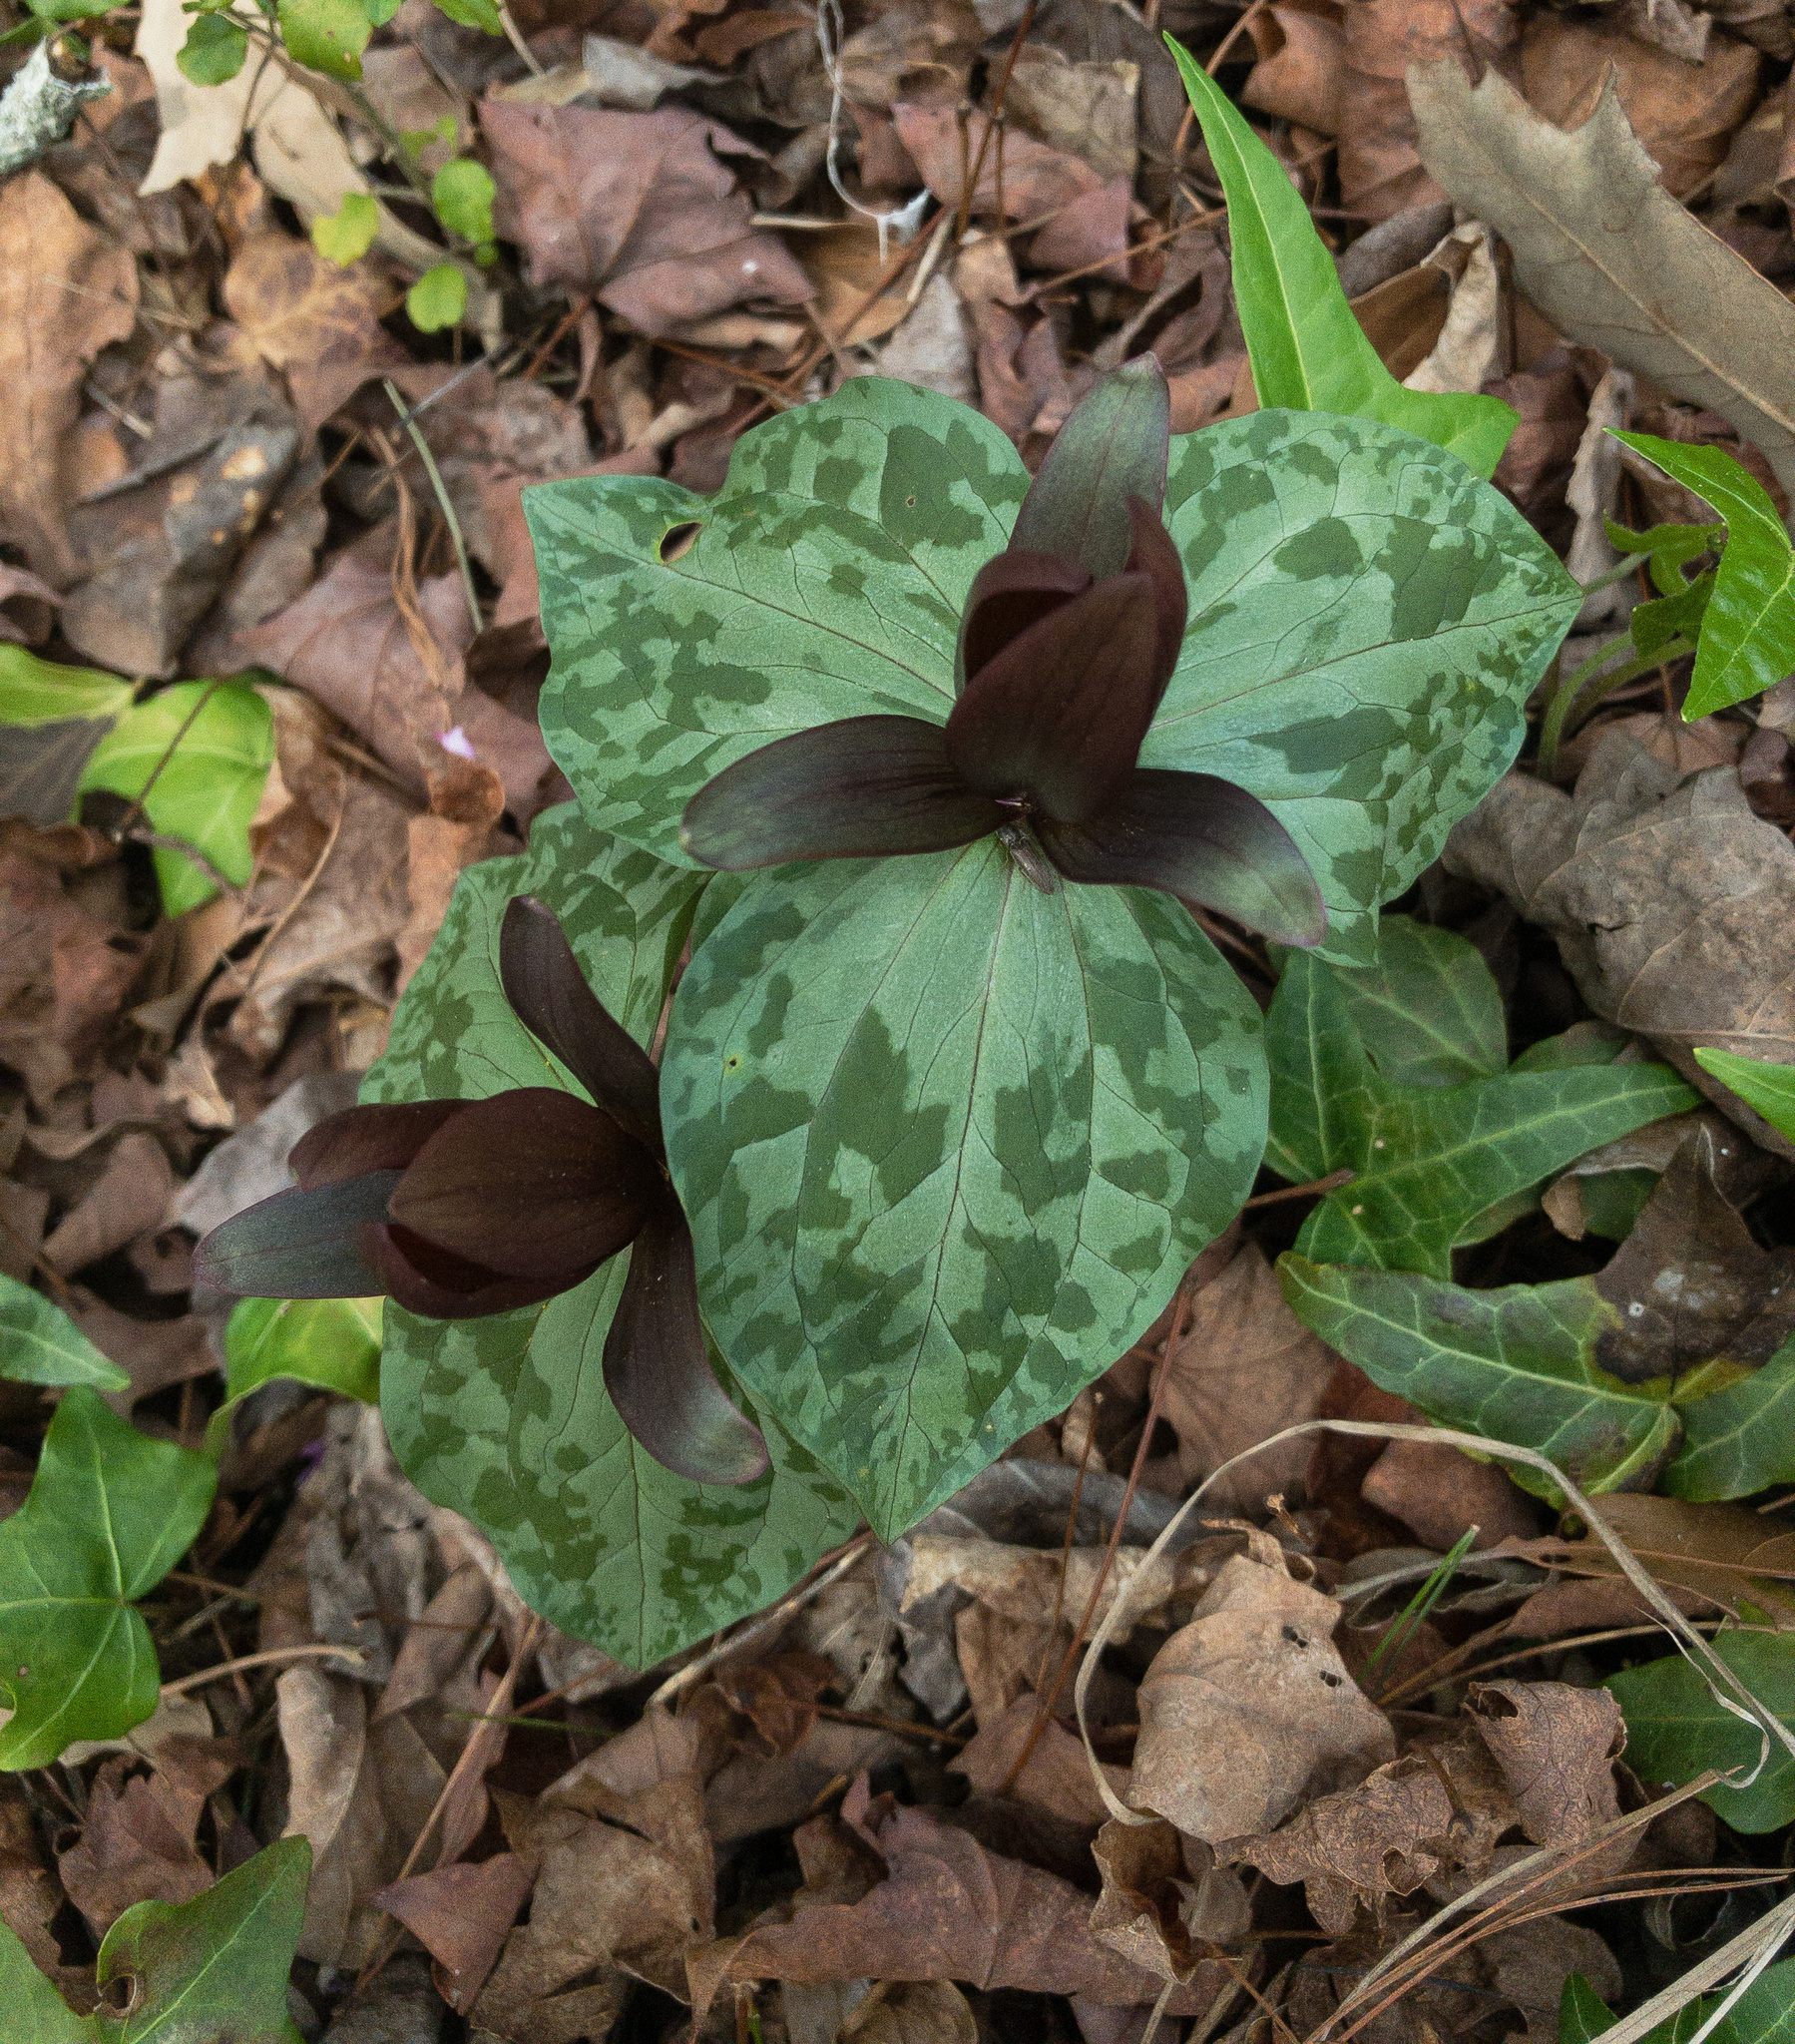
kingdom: Plantae
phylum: Tracheophyta
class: Liliopsida
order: Liliales
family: Melanthiaceae
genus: Trillium
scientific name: Trillium cuneatum
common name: Cuneate trillium
